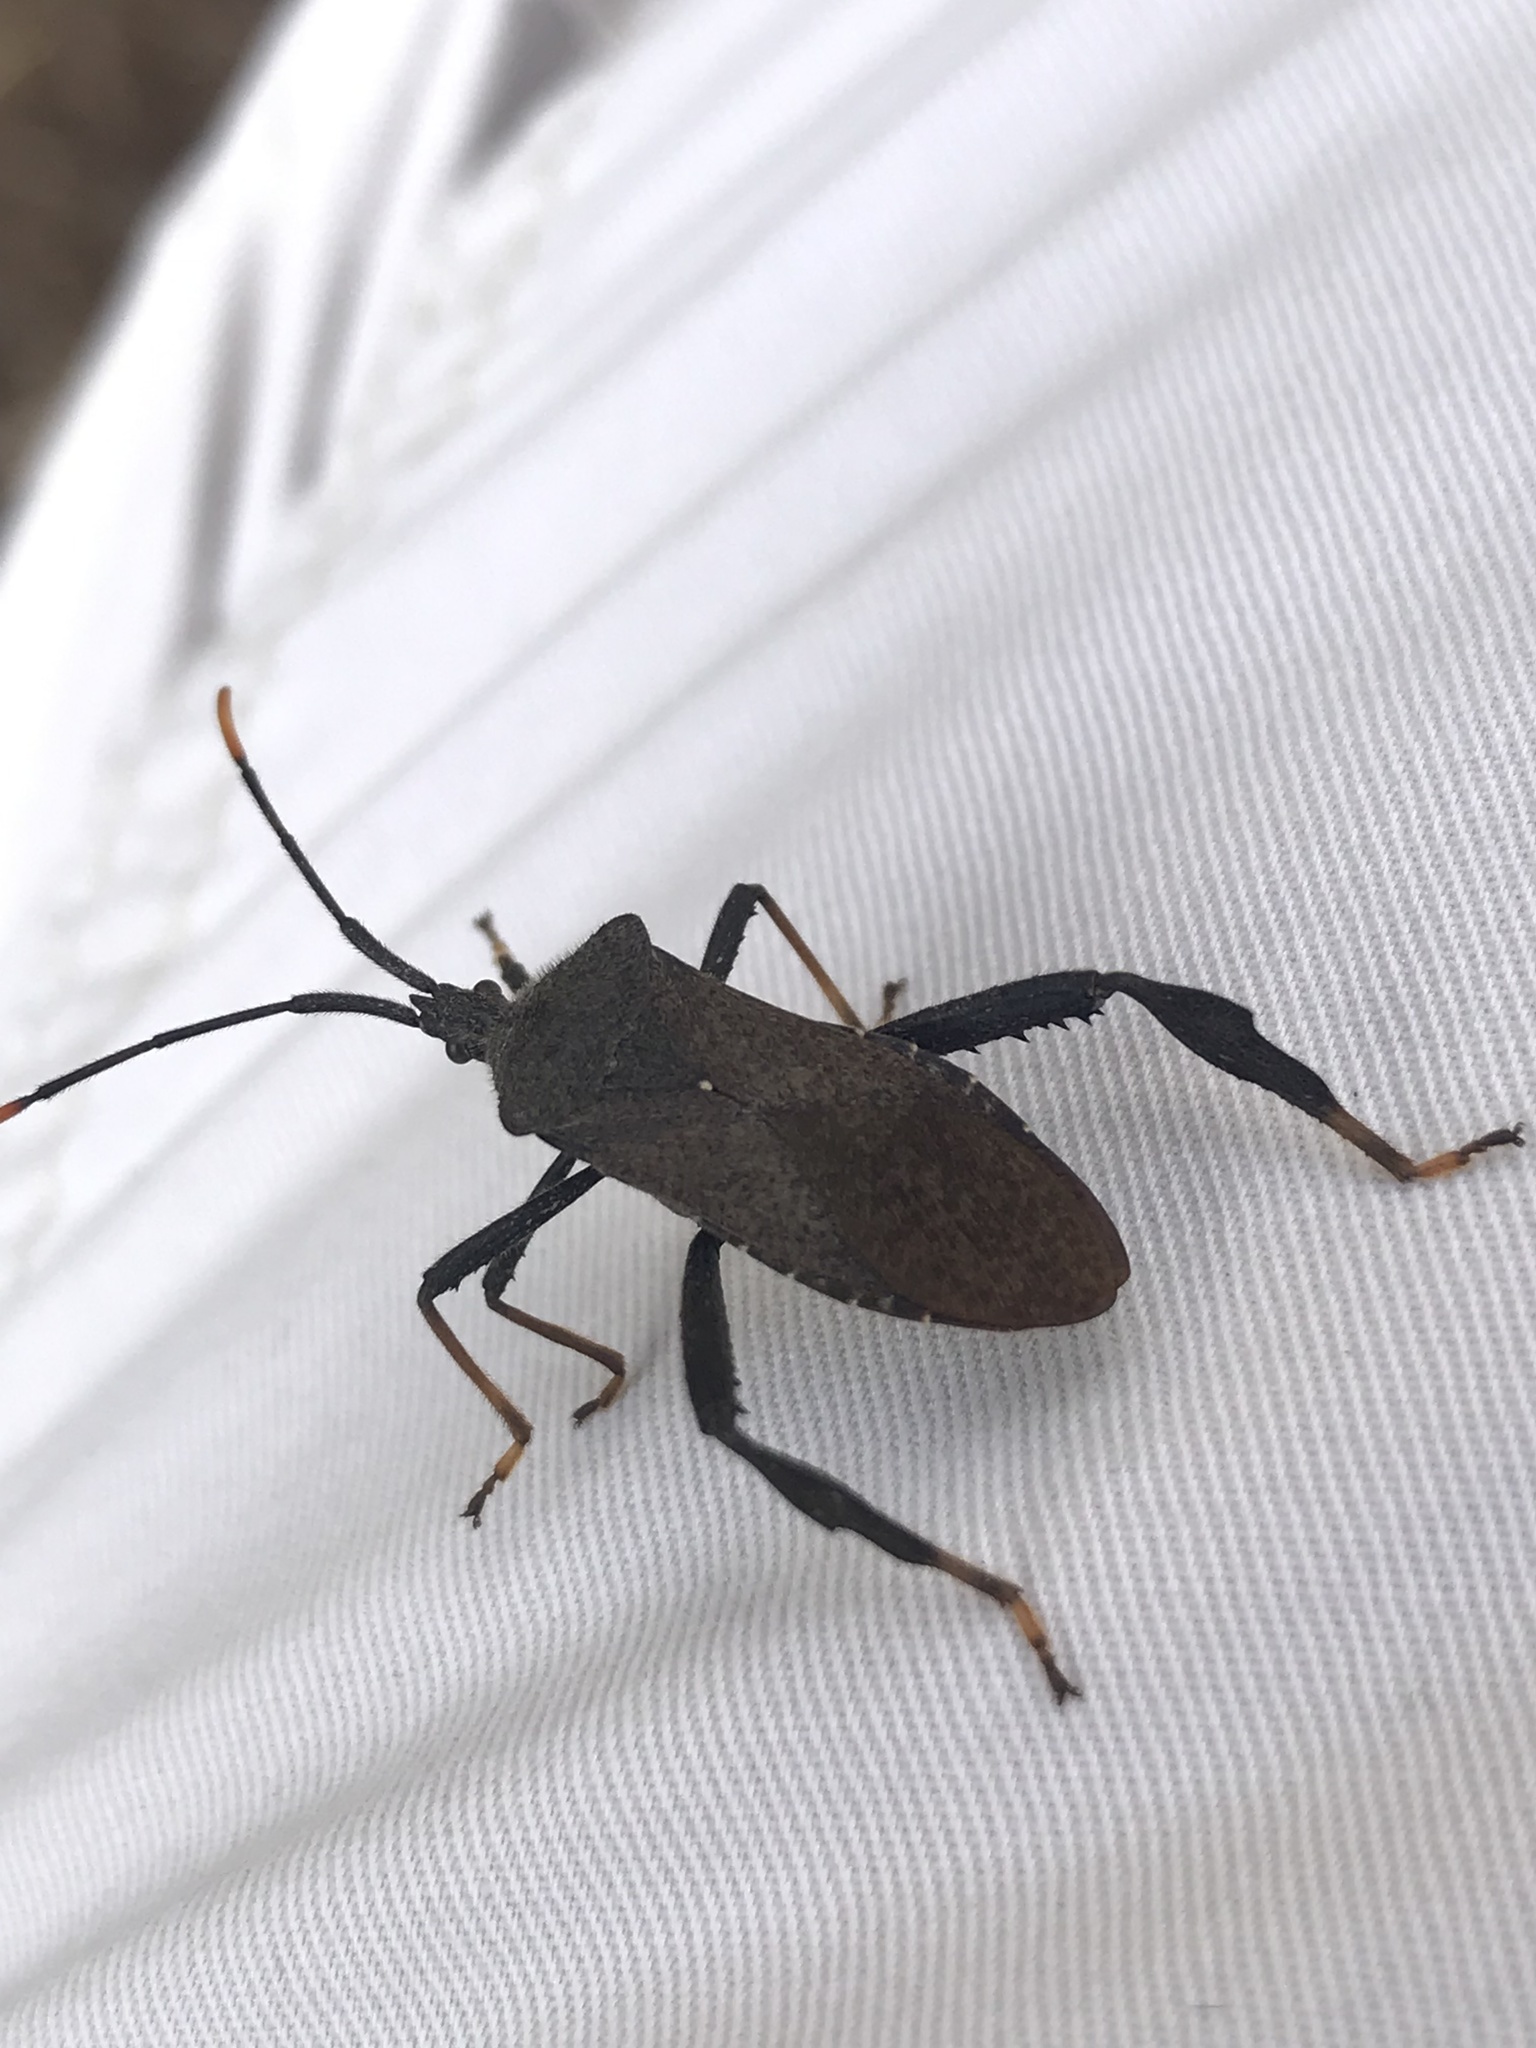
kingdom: Animalia
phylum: Arthropoda
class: Insecta
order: Hemiptera
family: Coreidae
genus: Acanthocephala
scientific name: Acanthocephala terminalis
